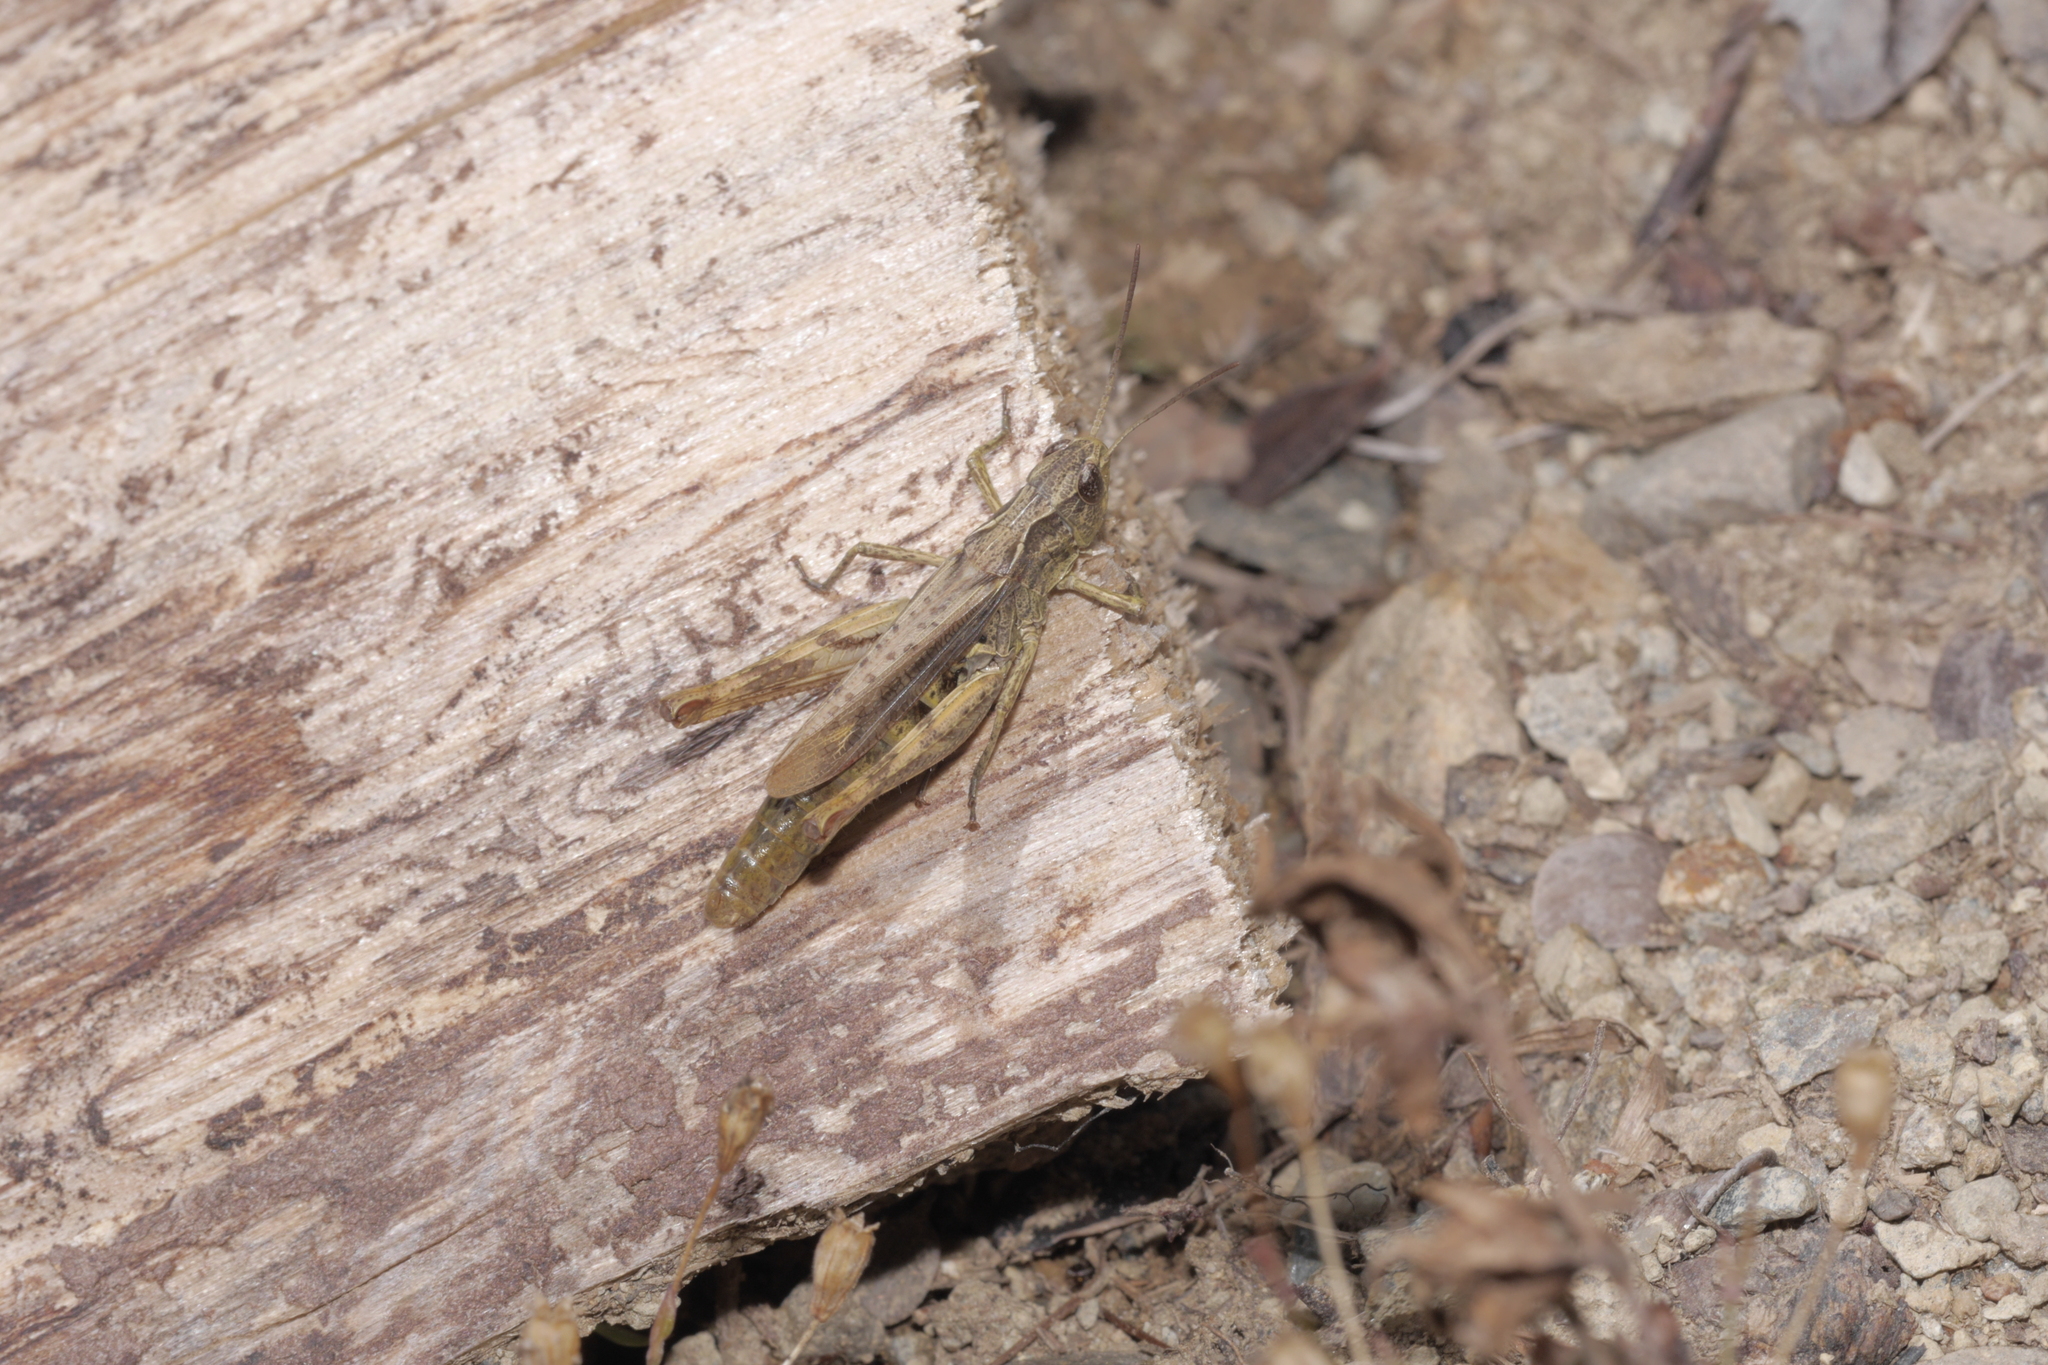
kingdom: Animalia
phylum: Arthropoda
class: Insecta
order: Orthoptera
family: Acrididae
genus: Chorthippus
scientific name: Chorthippus apricarius
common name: Upland field grasshopper
